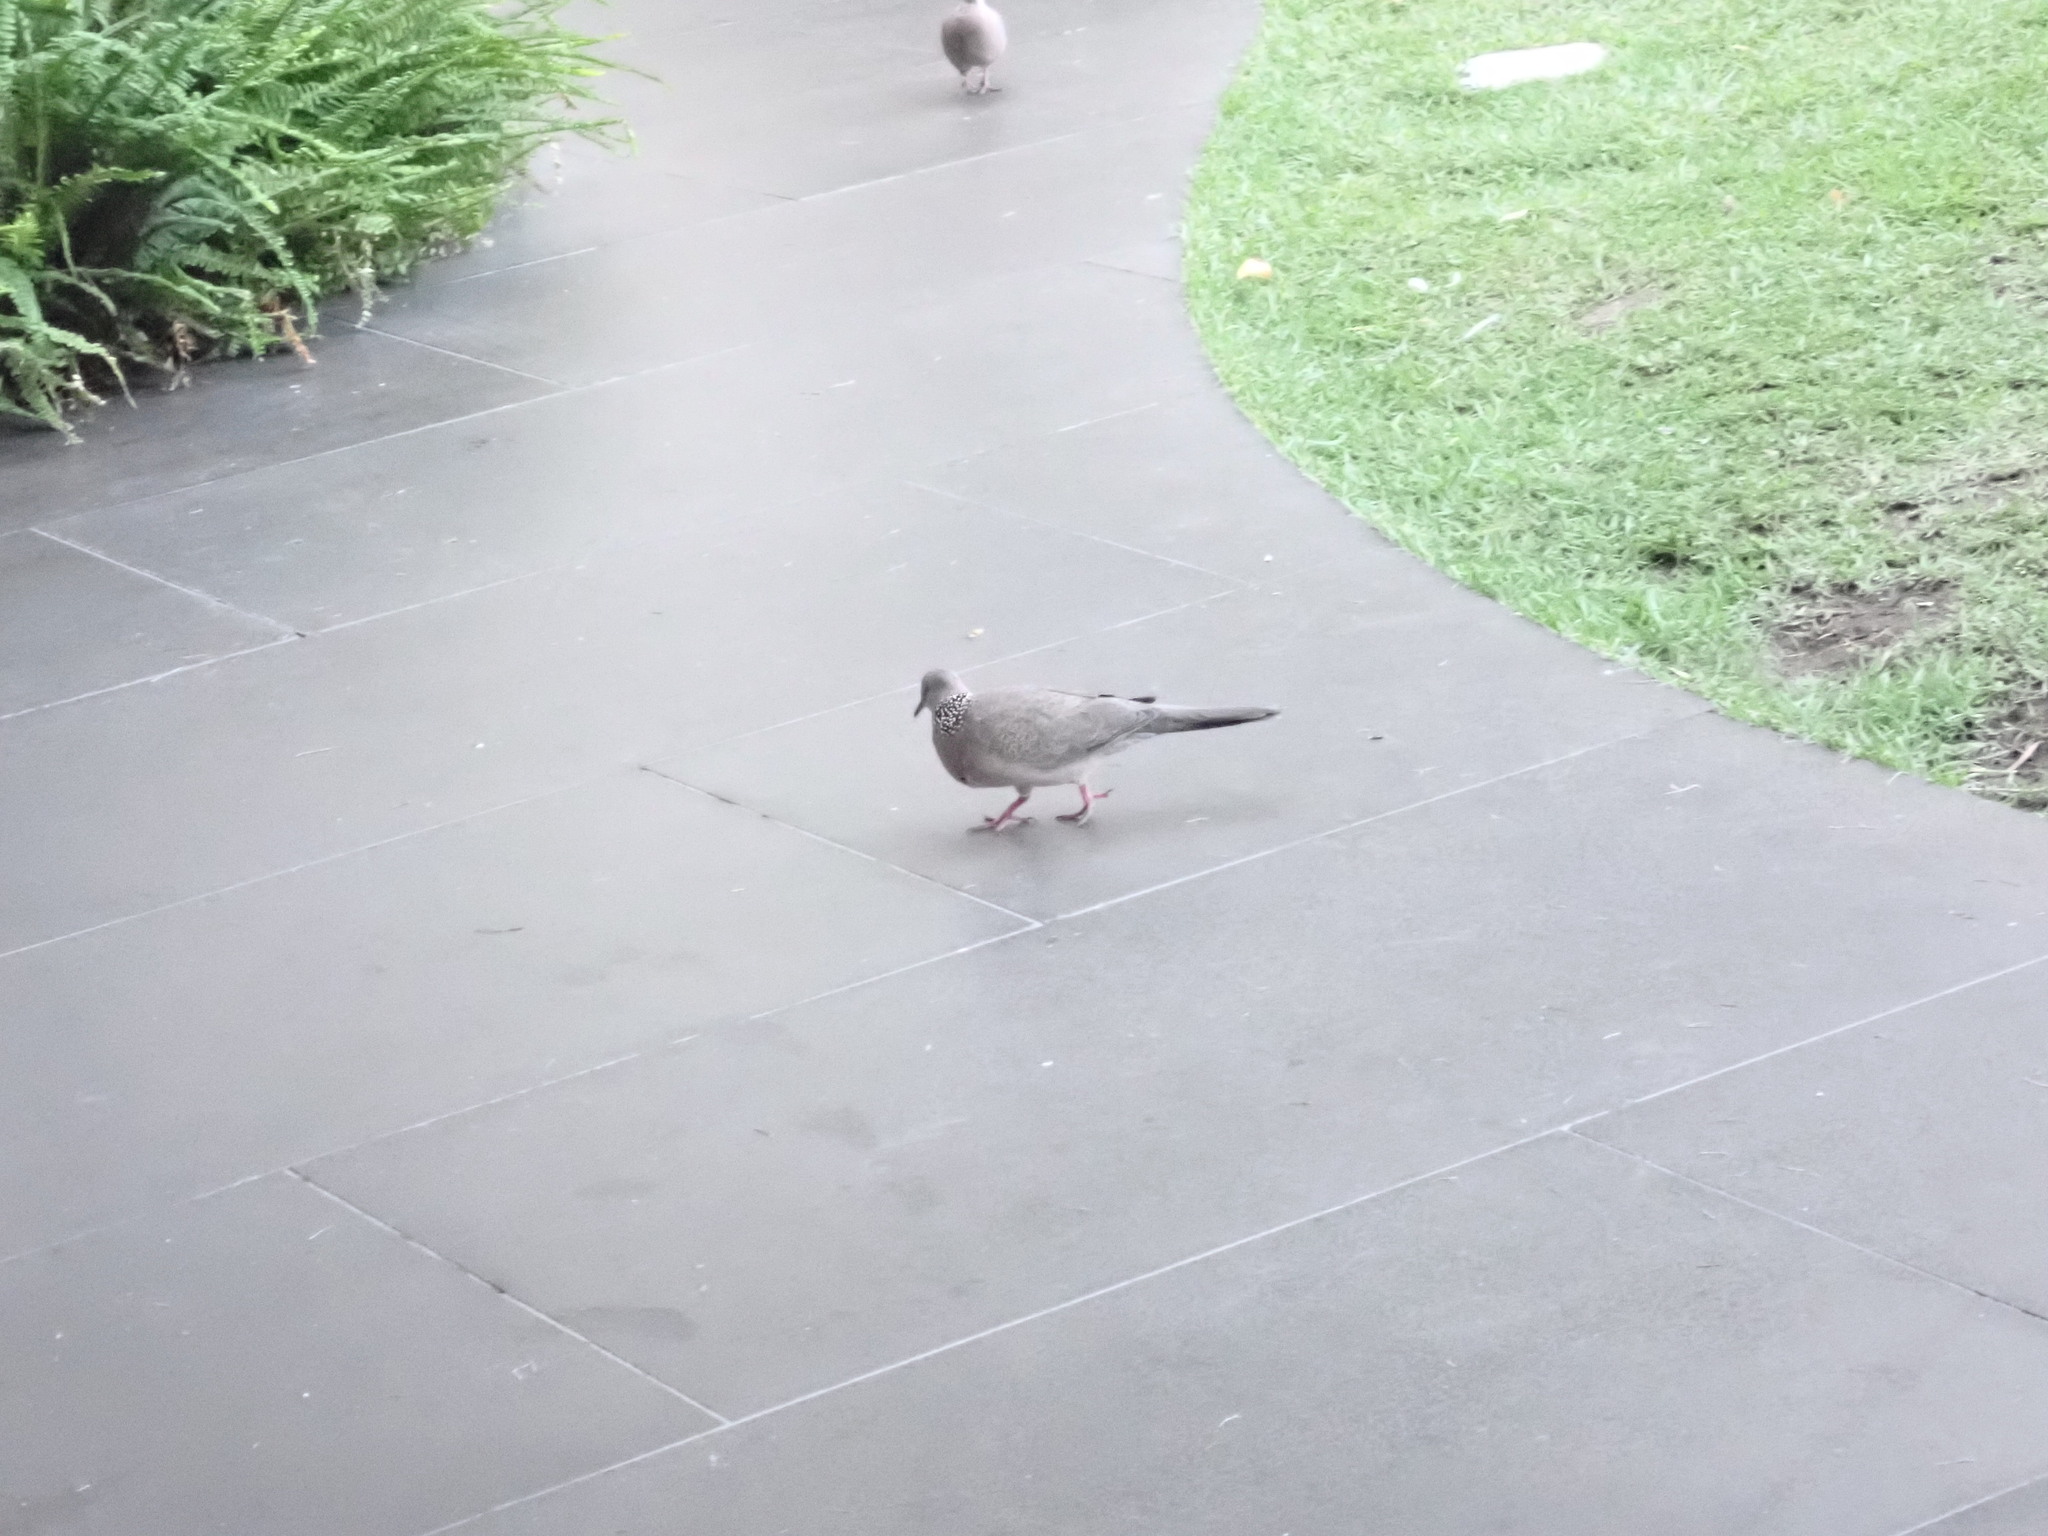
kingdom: Animalia
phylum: Chordata
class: Aves
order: Columbiformes
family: Columbidae
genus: Spilopelia
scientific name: Spilopelia chinensis
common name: Spotted dove
